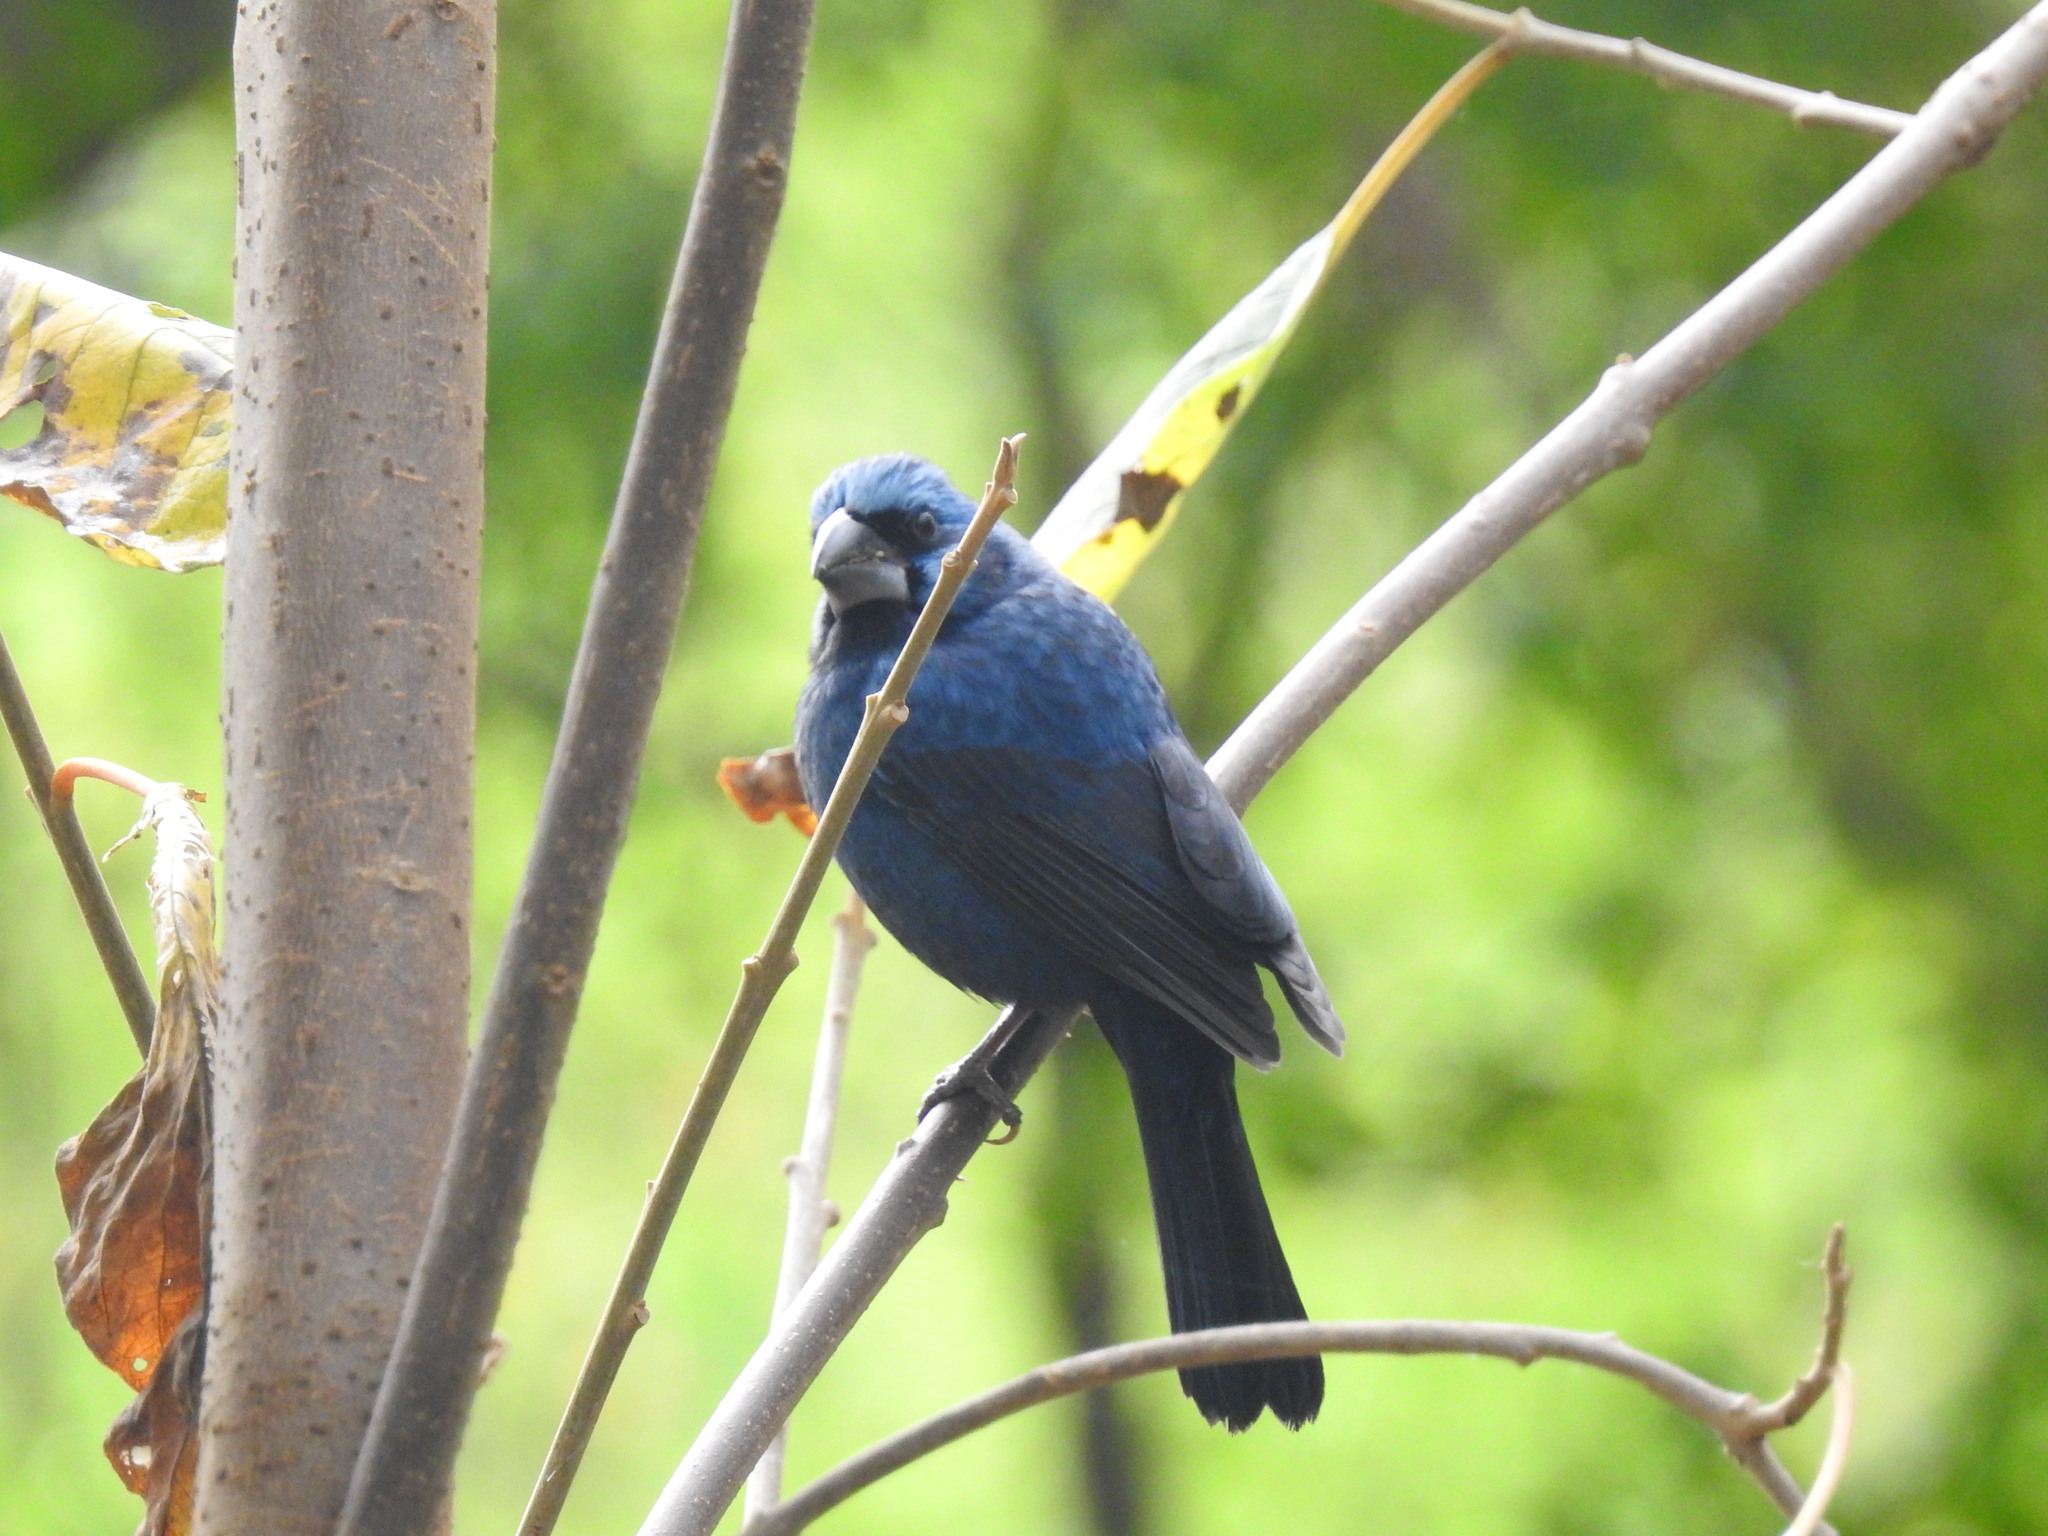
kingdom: Animalia
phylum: Chordata
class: Aves
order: Passeriformes
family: Cardinalidae
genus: Cyanoloxia
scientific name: Cyanoloxia brissonii
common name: Ultramarine grosbeak
